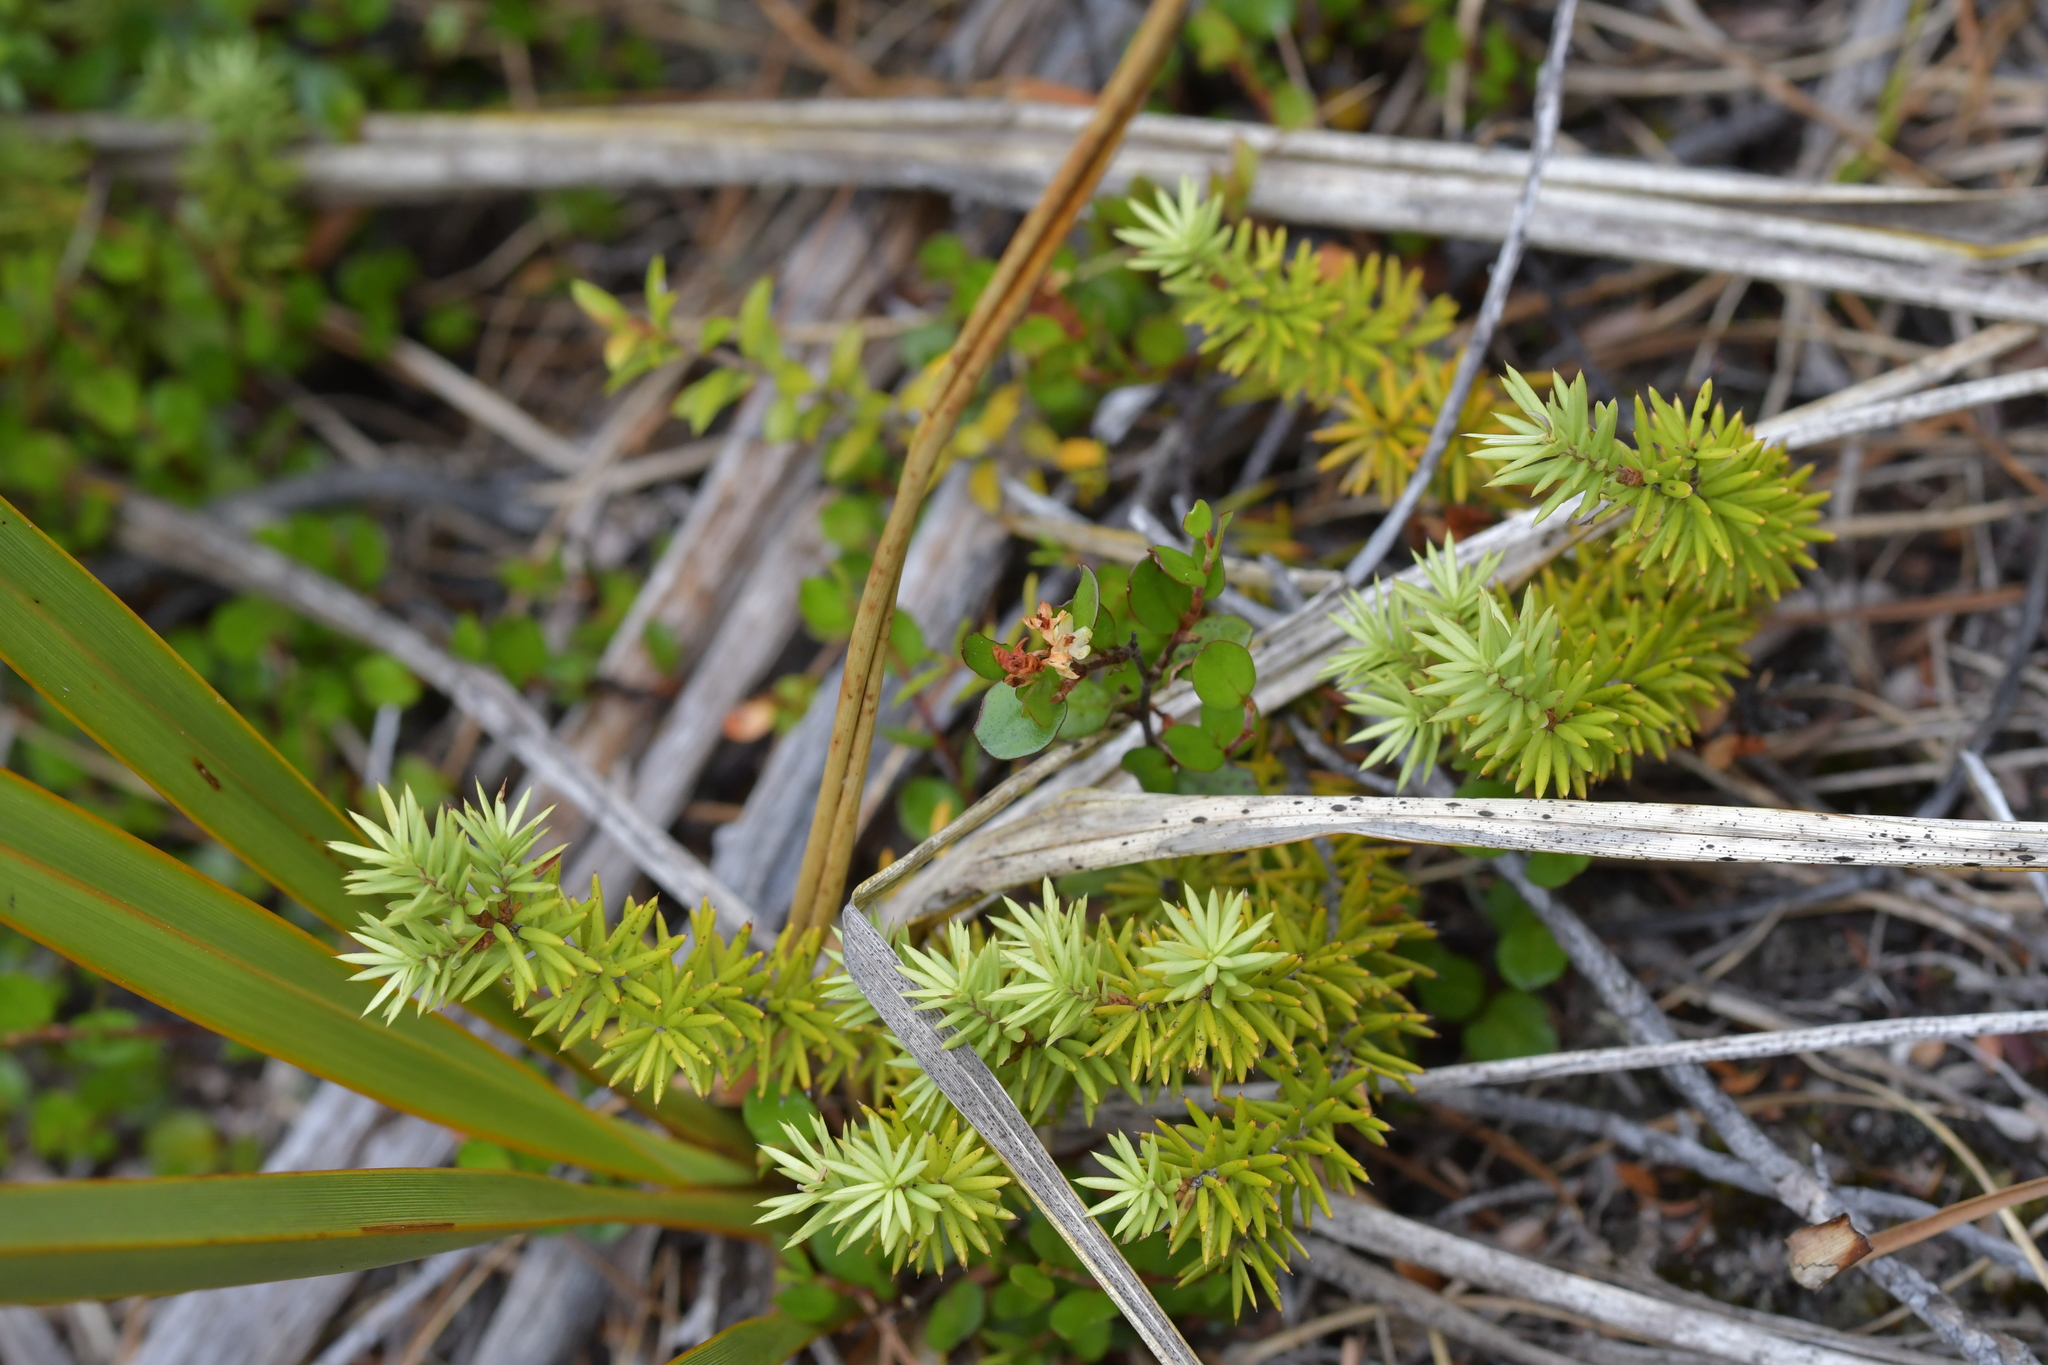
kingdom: Plantae
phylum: Tracheophyta
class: Magnoliopsida
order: Caryophyllales
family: Polygonaceae
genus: Muehlenbeckia
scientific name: Muehlenbeckia axillaris
